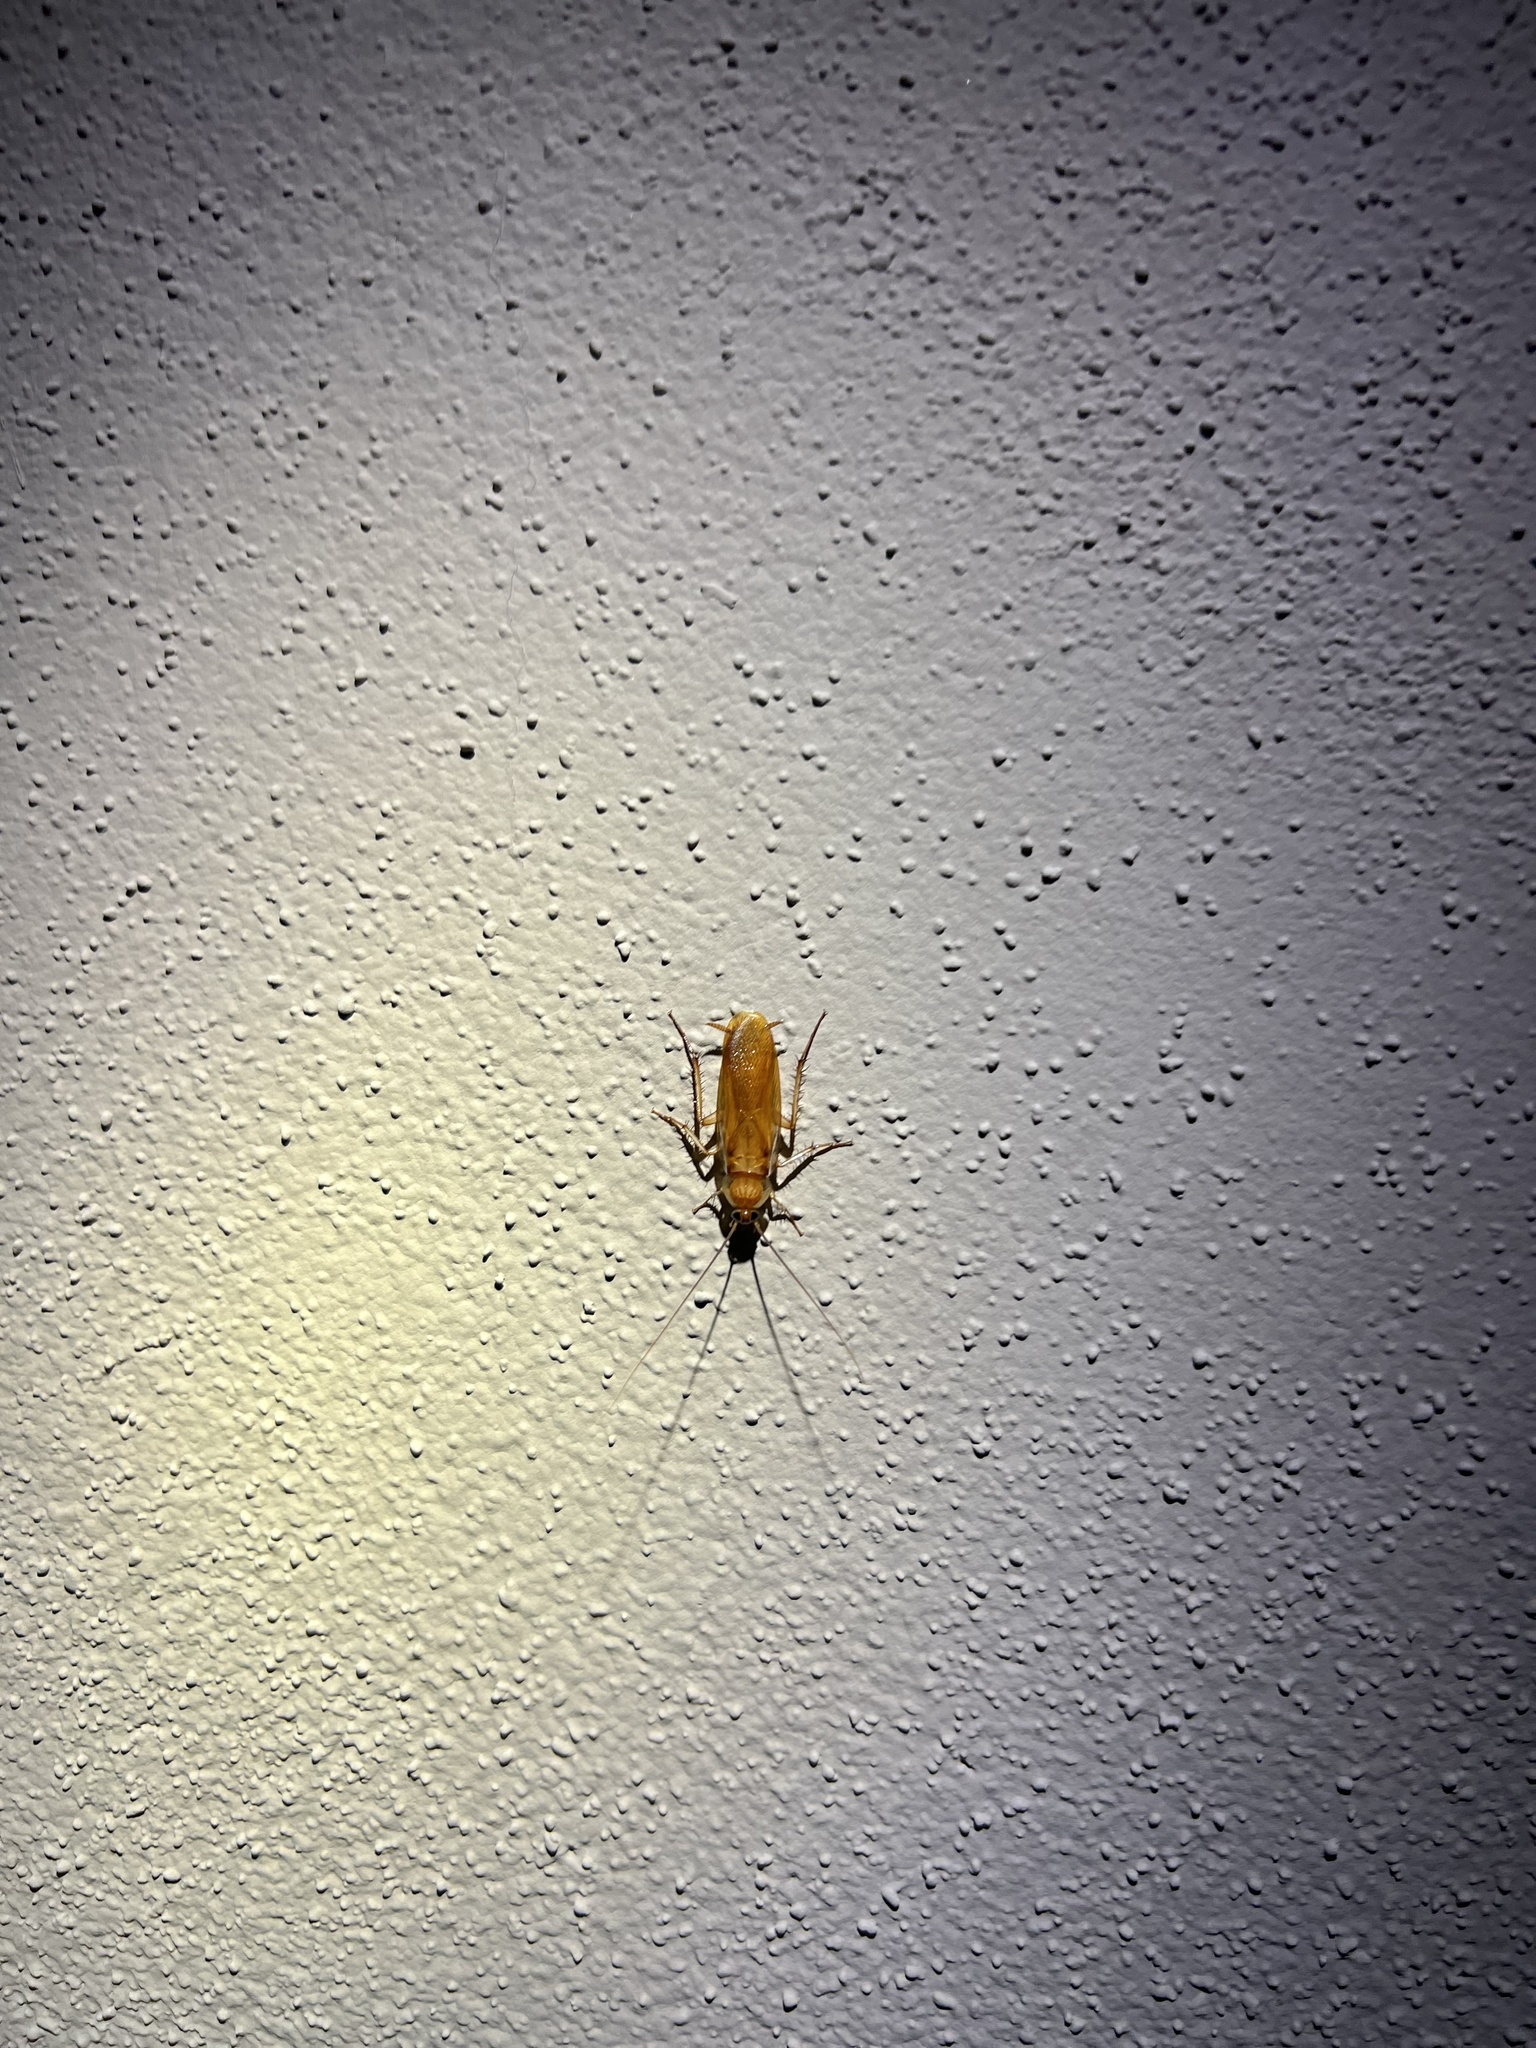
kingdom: Animalia
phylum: Arthropoda
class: Insecta
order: Blattodea
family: Blattidae
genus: Periplaneta
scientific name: Periplaneta lateralis
